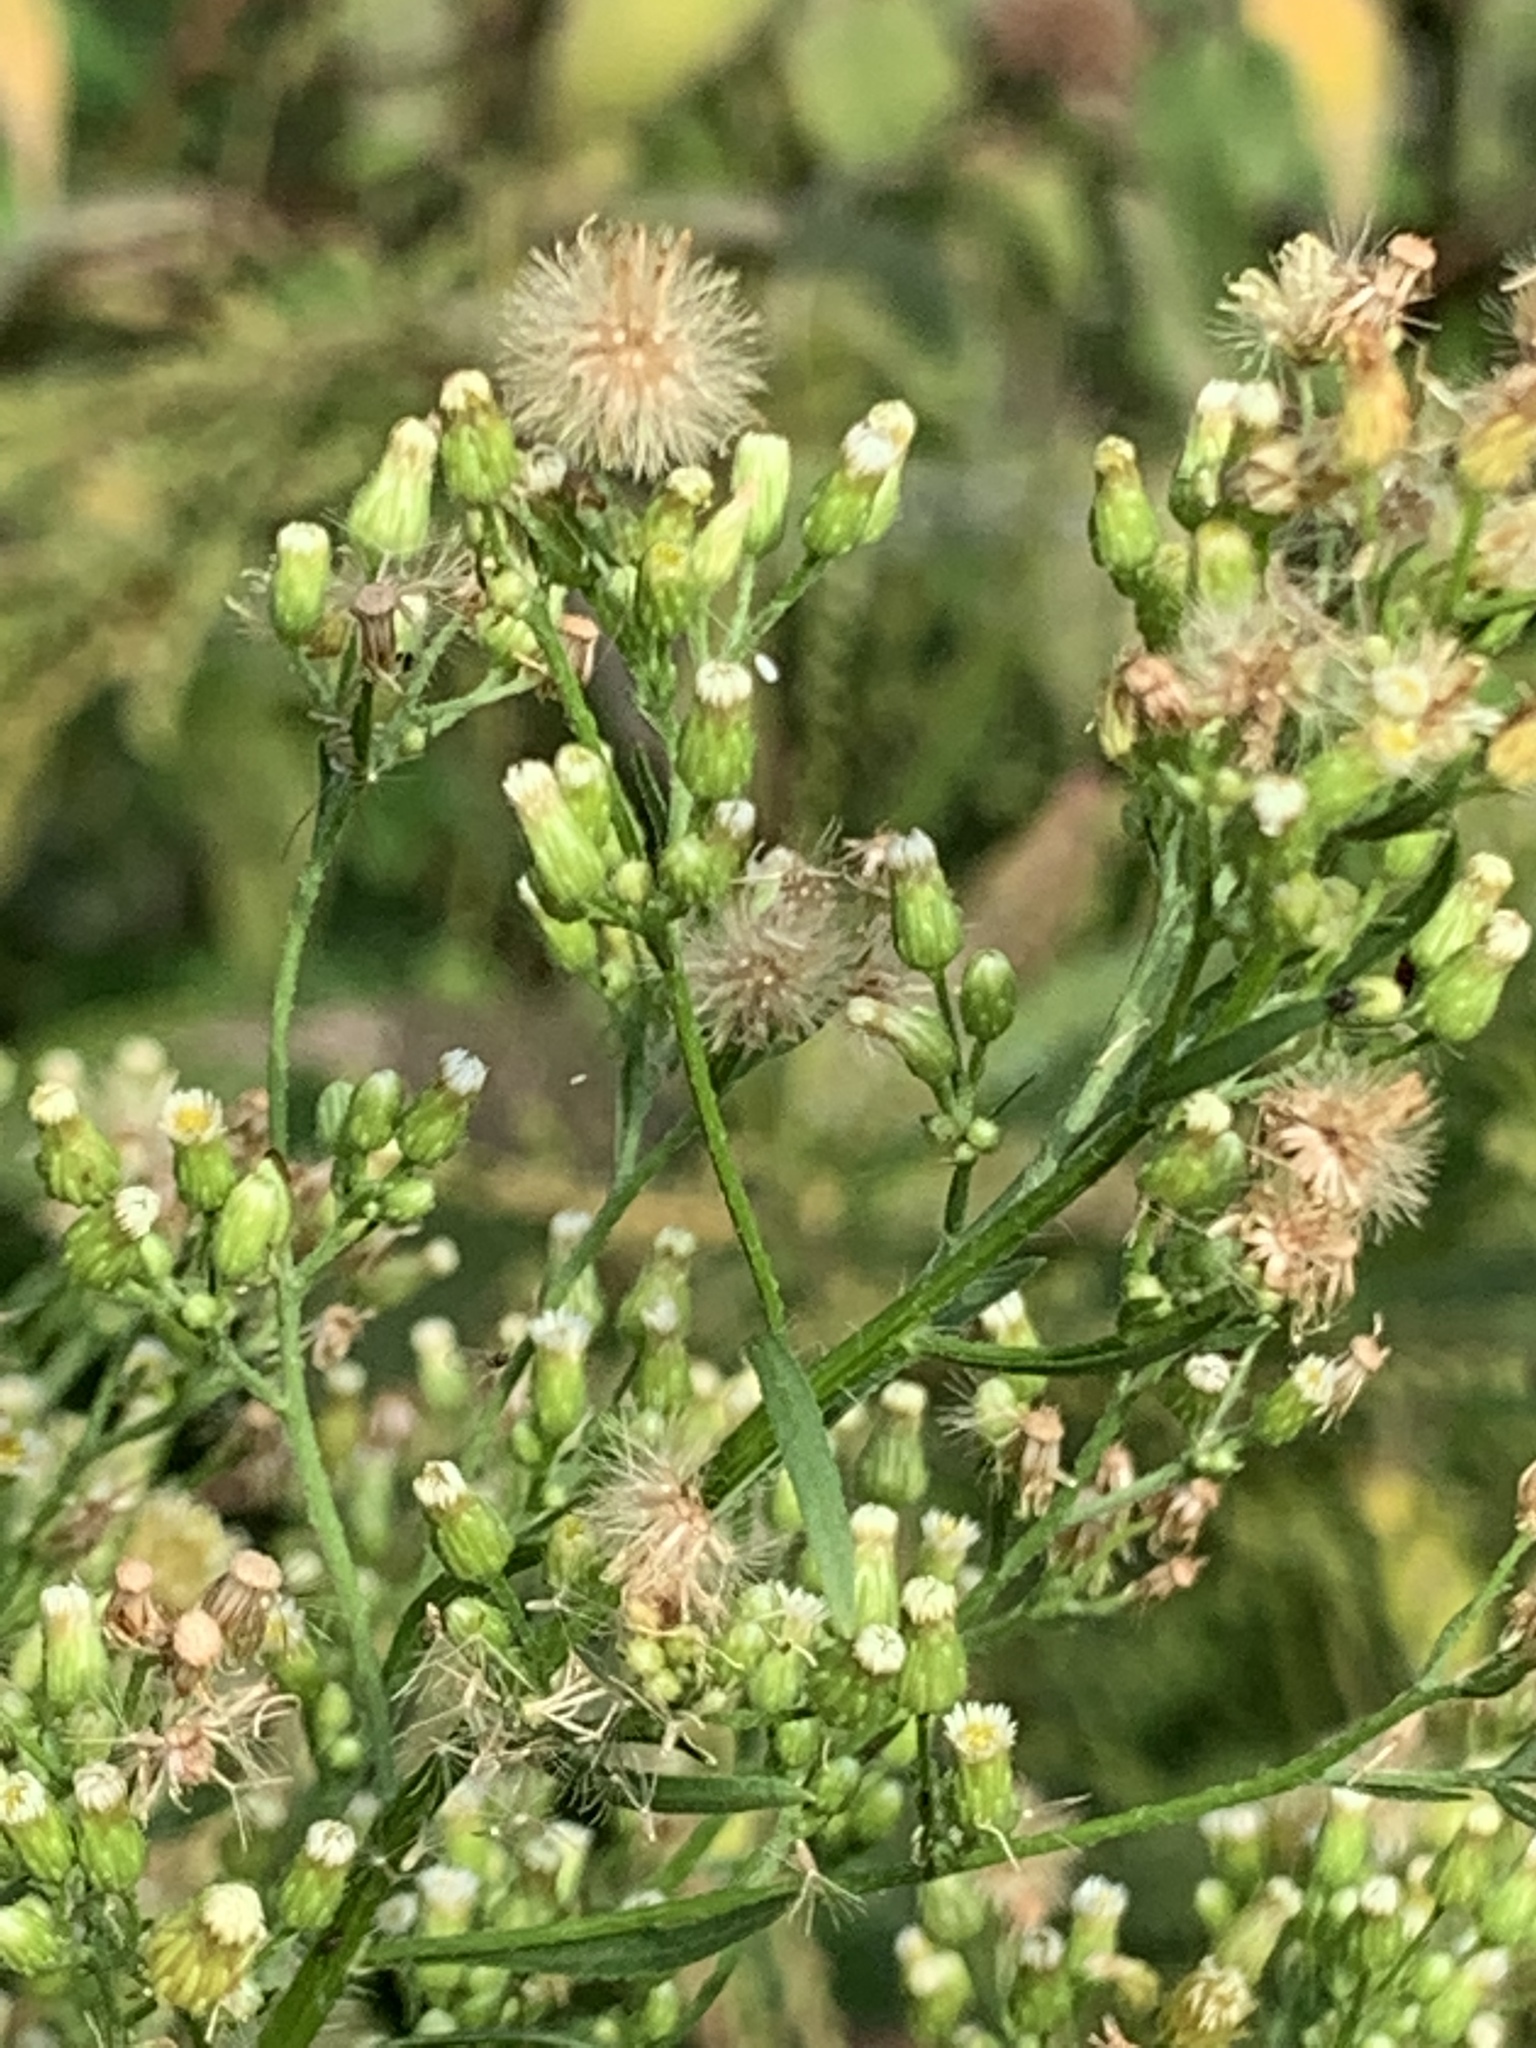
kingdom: Plantae
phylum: Tracheophyta
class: Magnoliopsida
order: Asterales
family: Asteraceae
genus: Erigeron
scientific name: Erigeron canadensis
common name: Canadian fleabane
